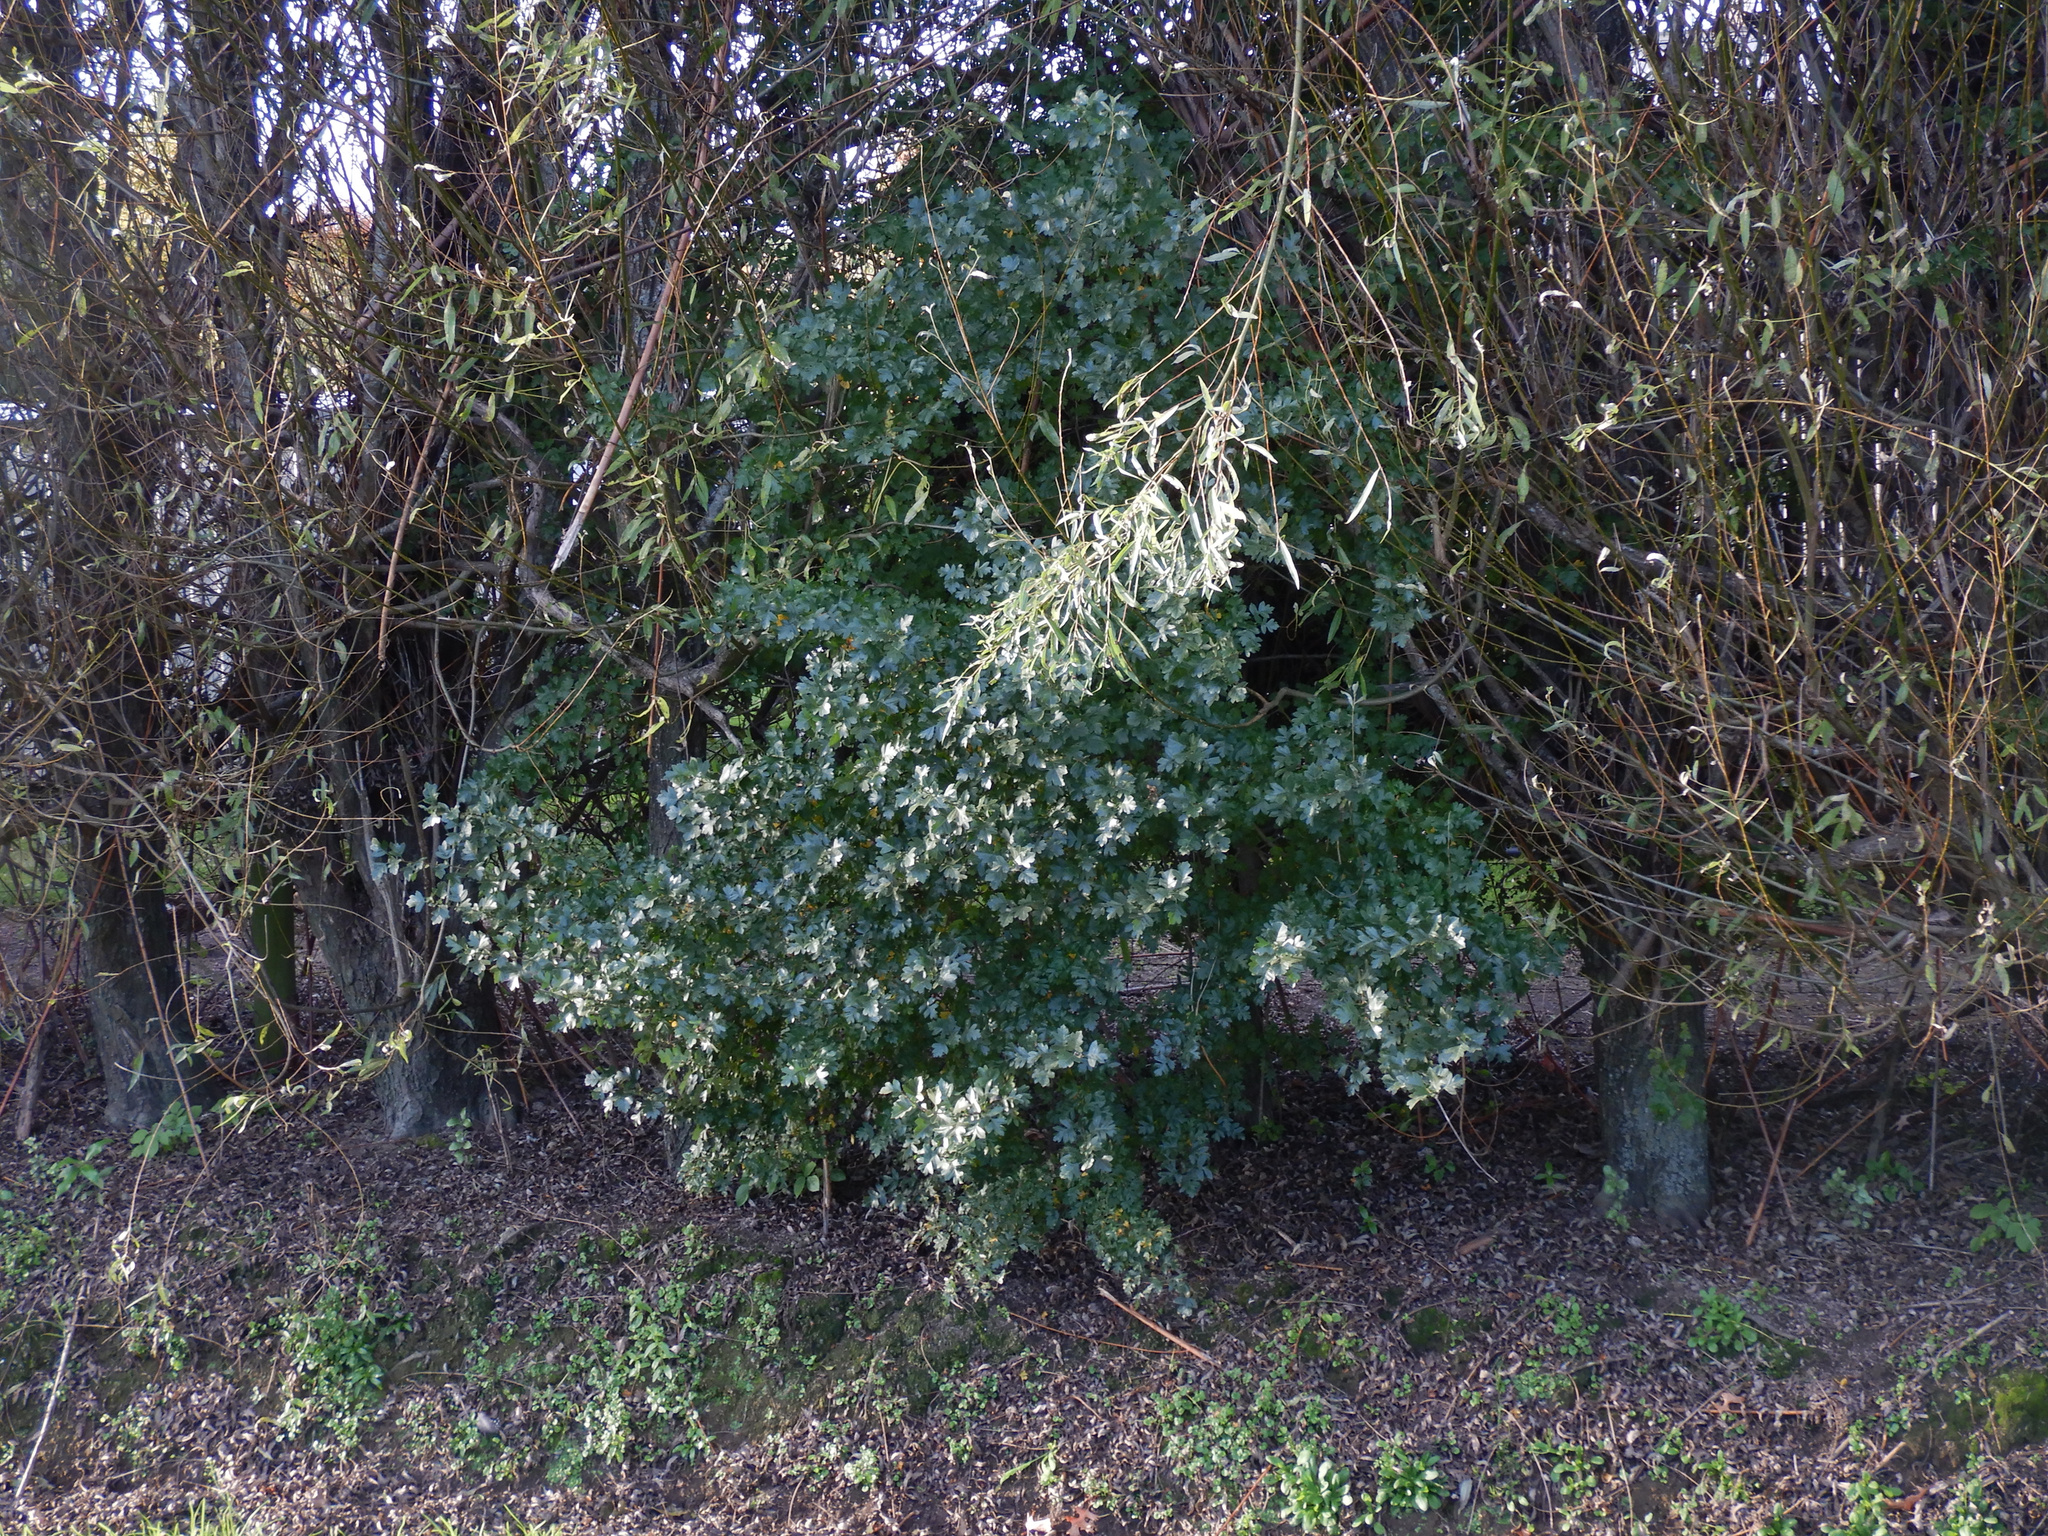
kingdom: Plantae
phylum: Tracheophyta
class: Magnoliopsida
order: Rosales
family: Rosaceae
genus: Crataegus
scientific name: Crataegus monogyna
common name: Hawthorn
